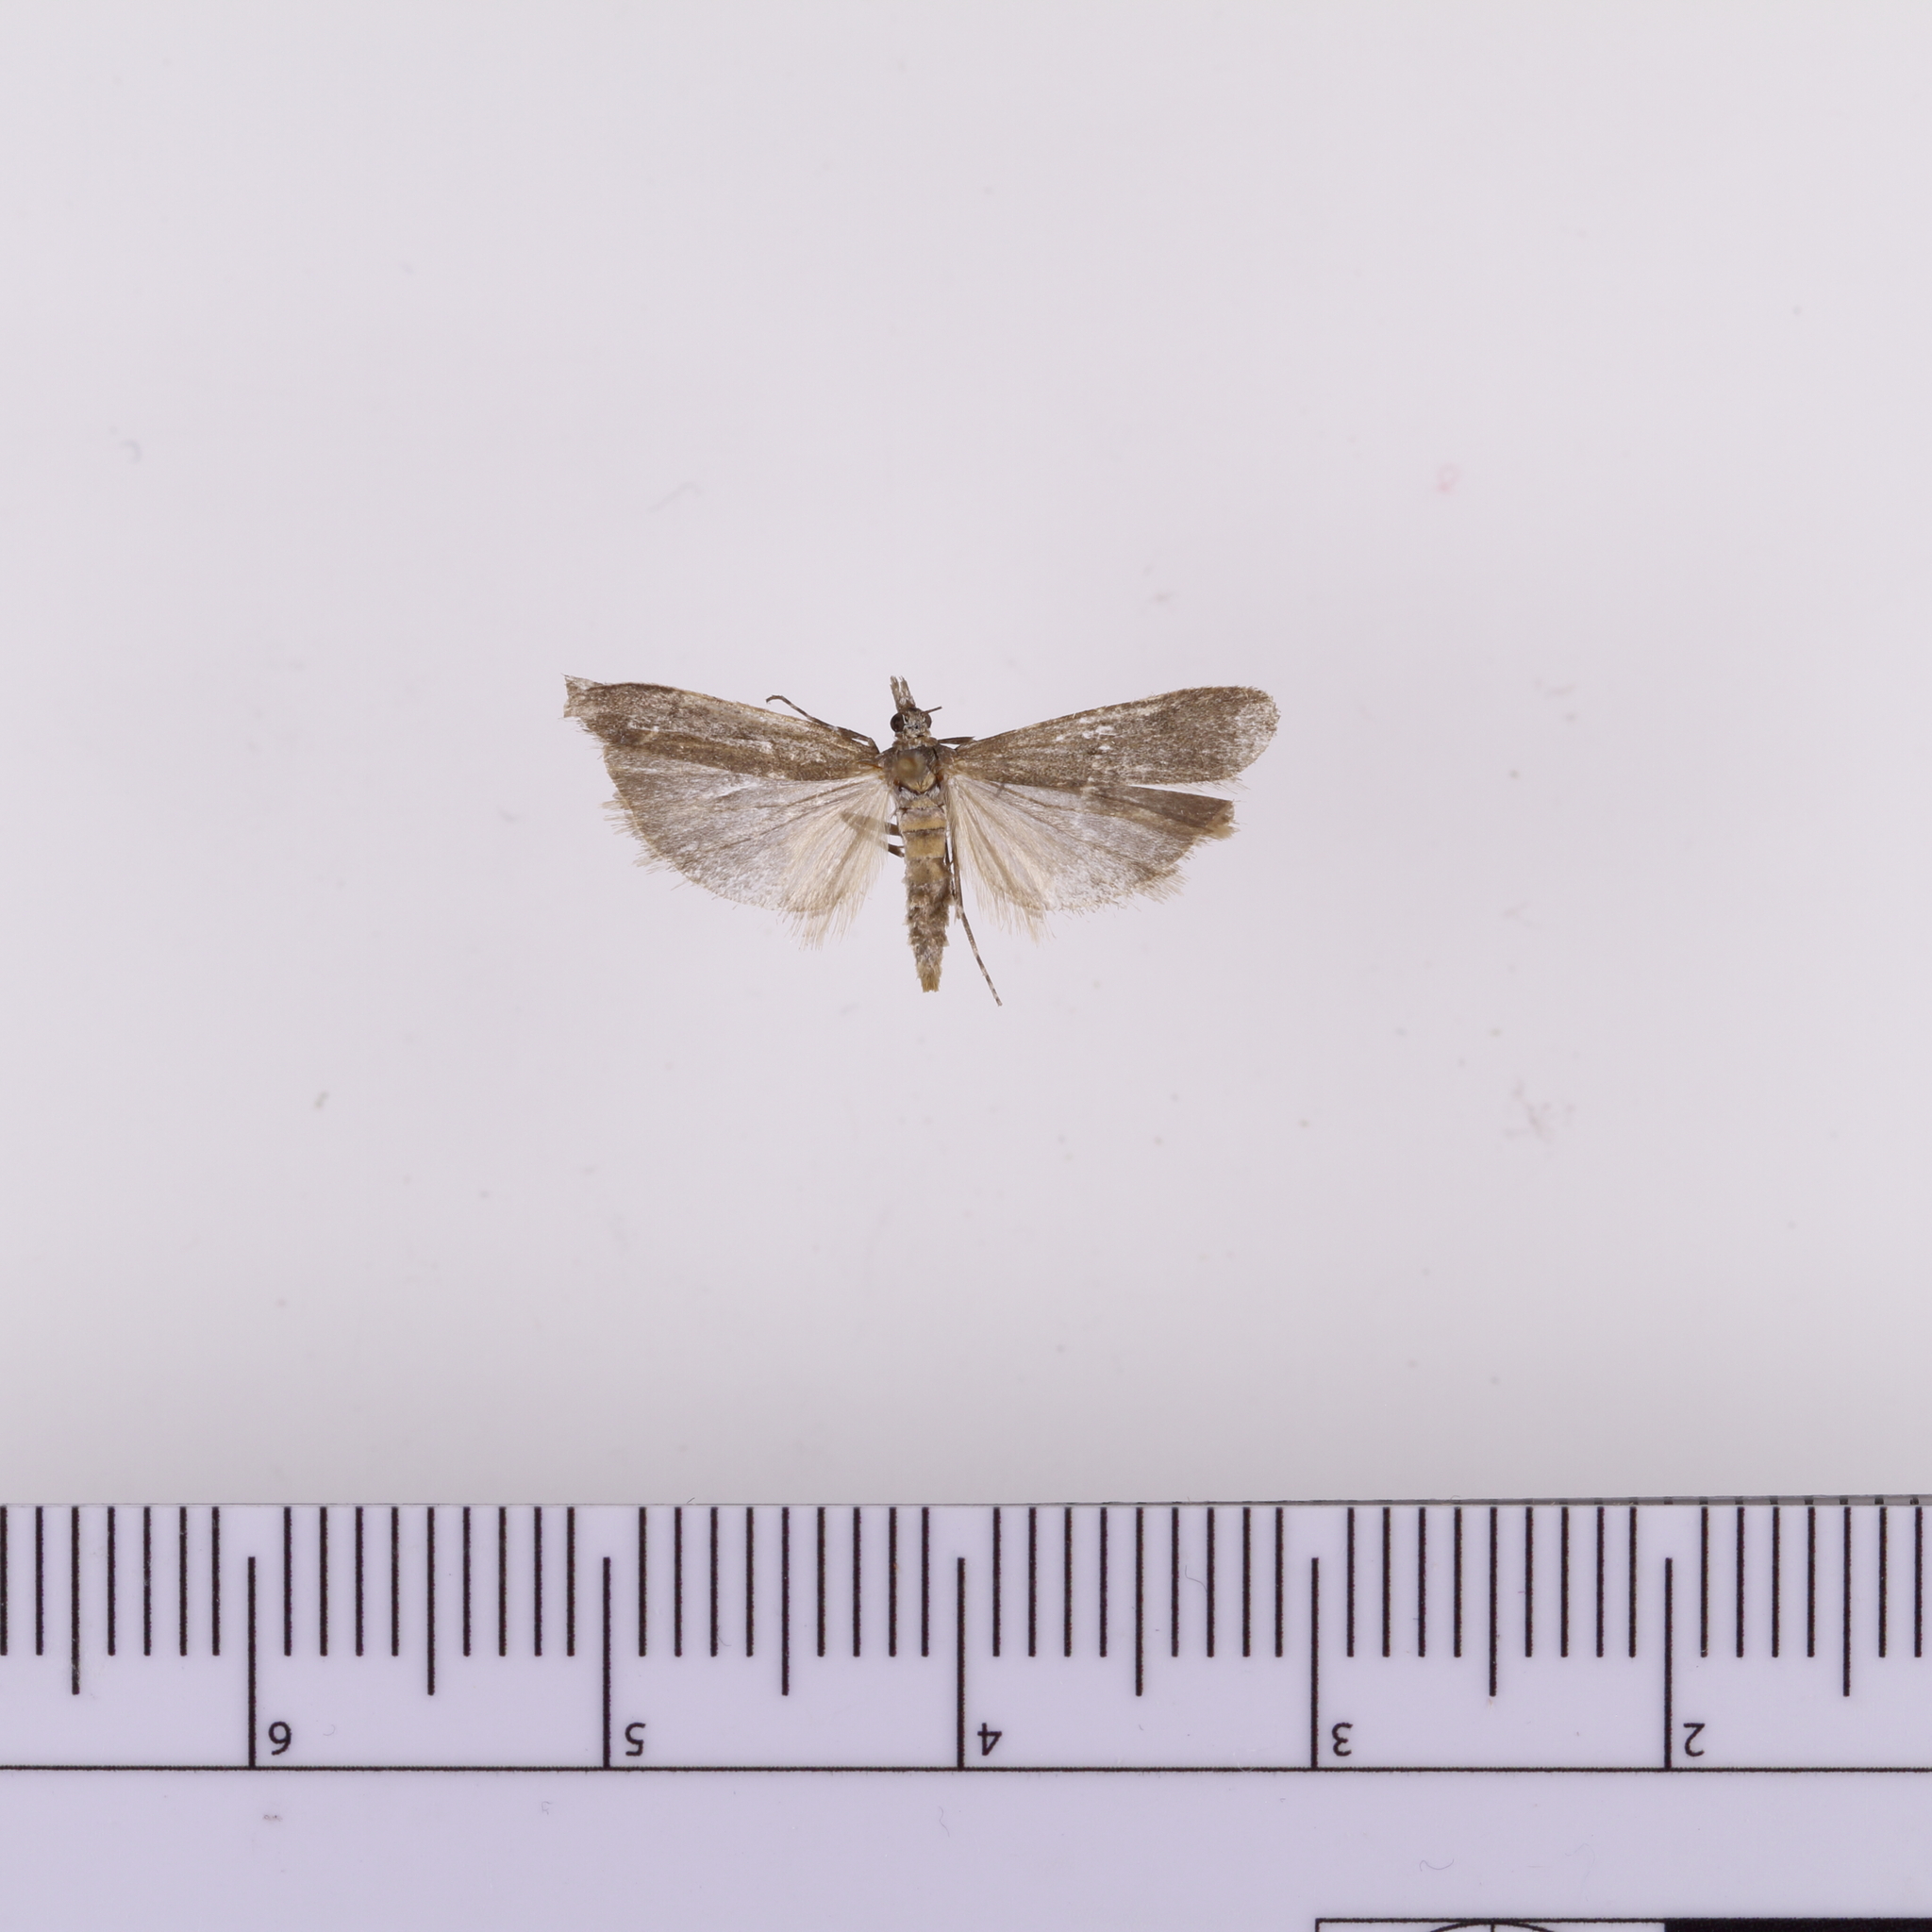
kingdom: Animalia
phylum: Arthropoda
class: Insecta
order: Lepidoptera
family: Crambidae
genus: Eudonia
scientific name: Eudonia leptalea
